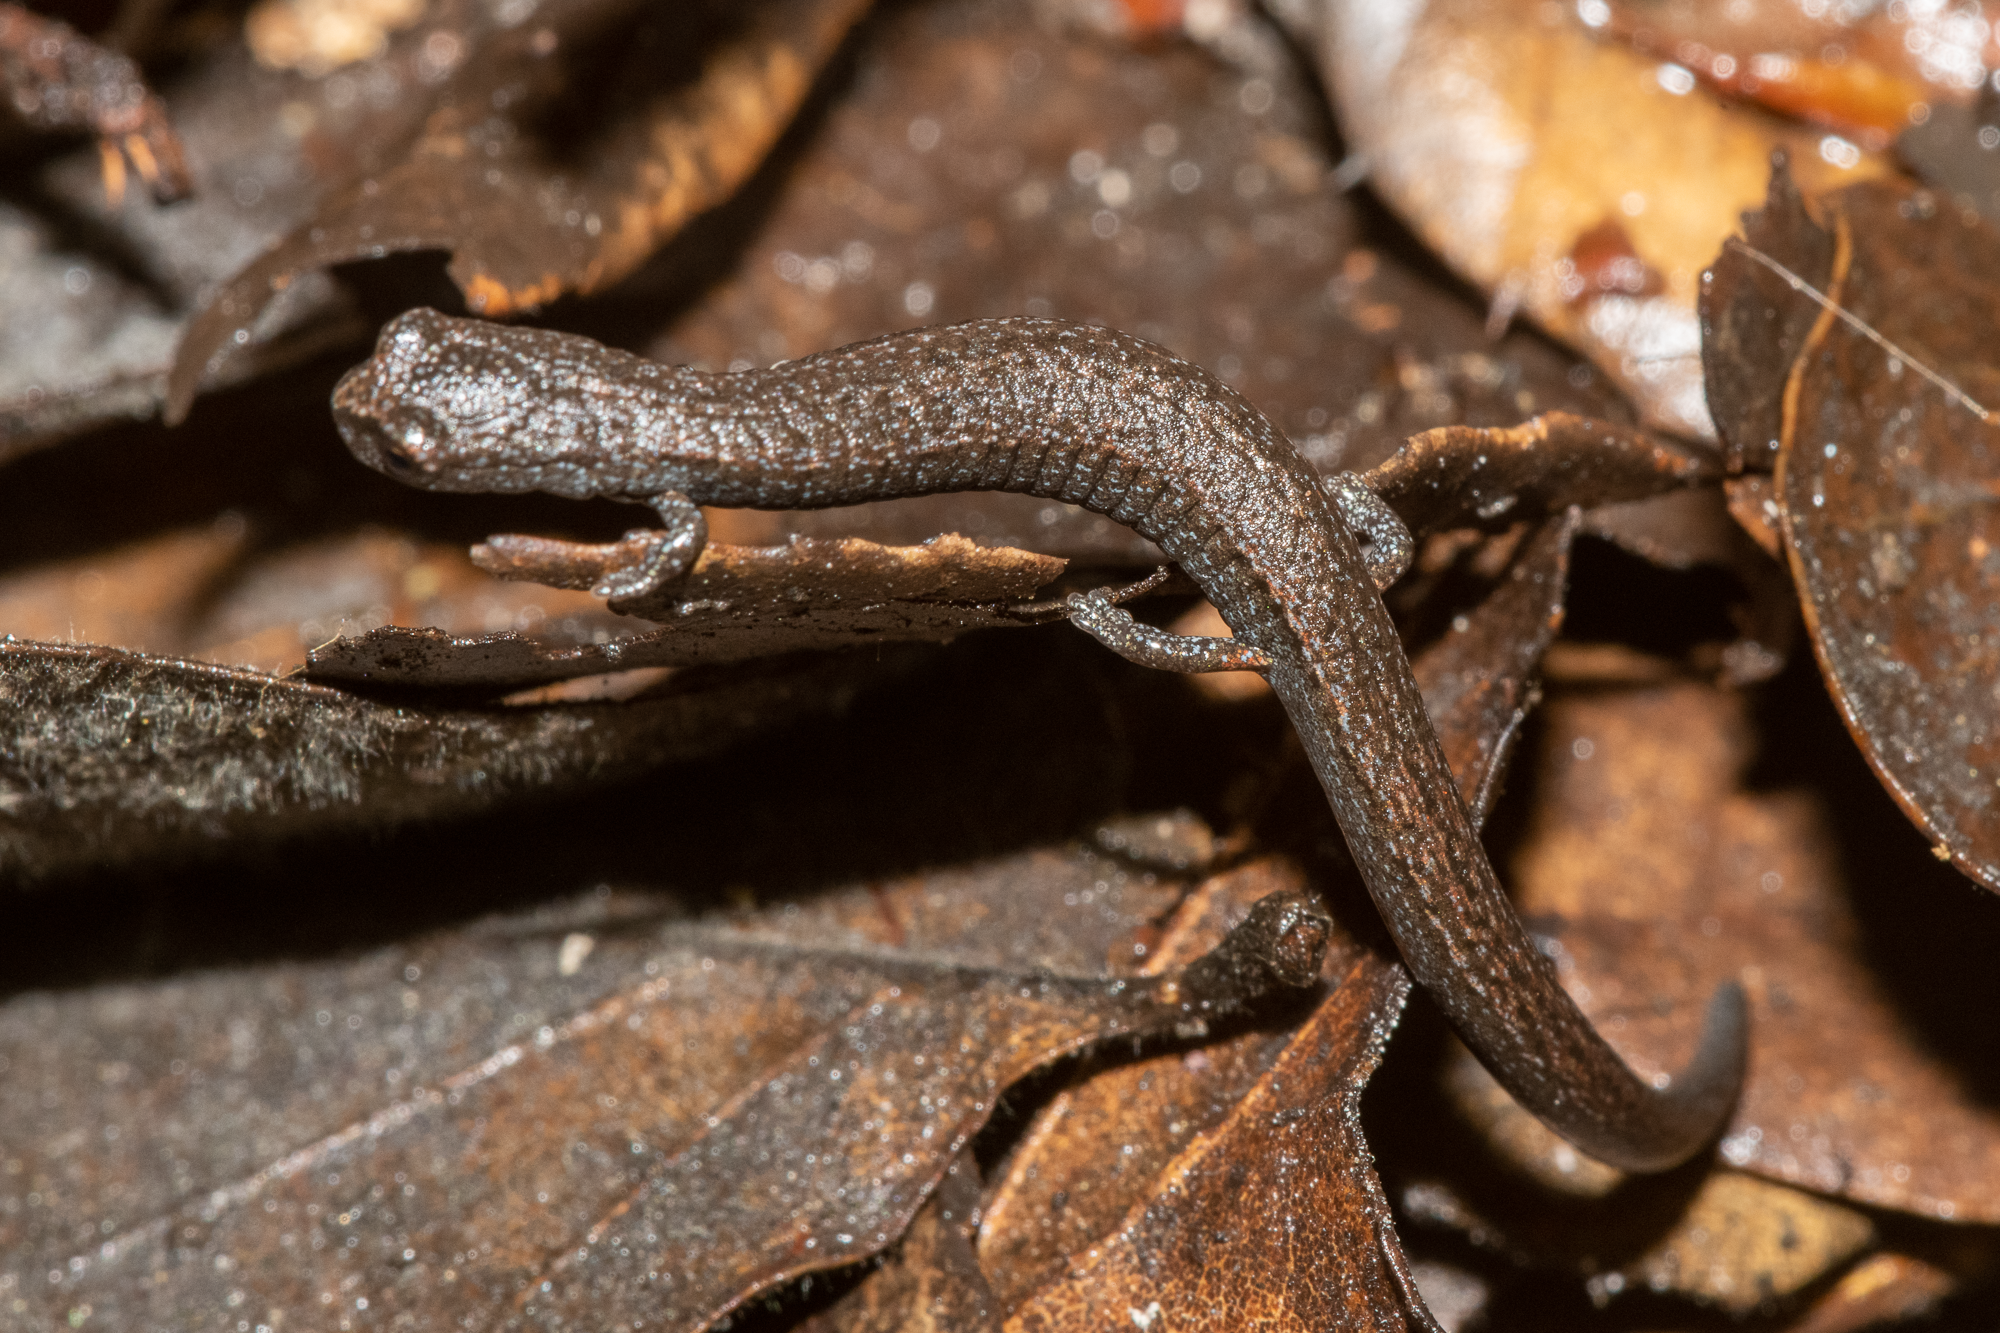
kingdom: Animalia
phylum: Chordata
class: Amphibia
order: Caudata
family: Plethodontidae
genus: Batrachoseps
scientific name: Batrachoseps attenuatus
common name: California slender salamander
